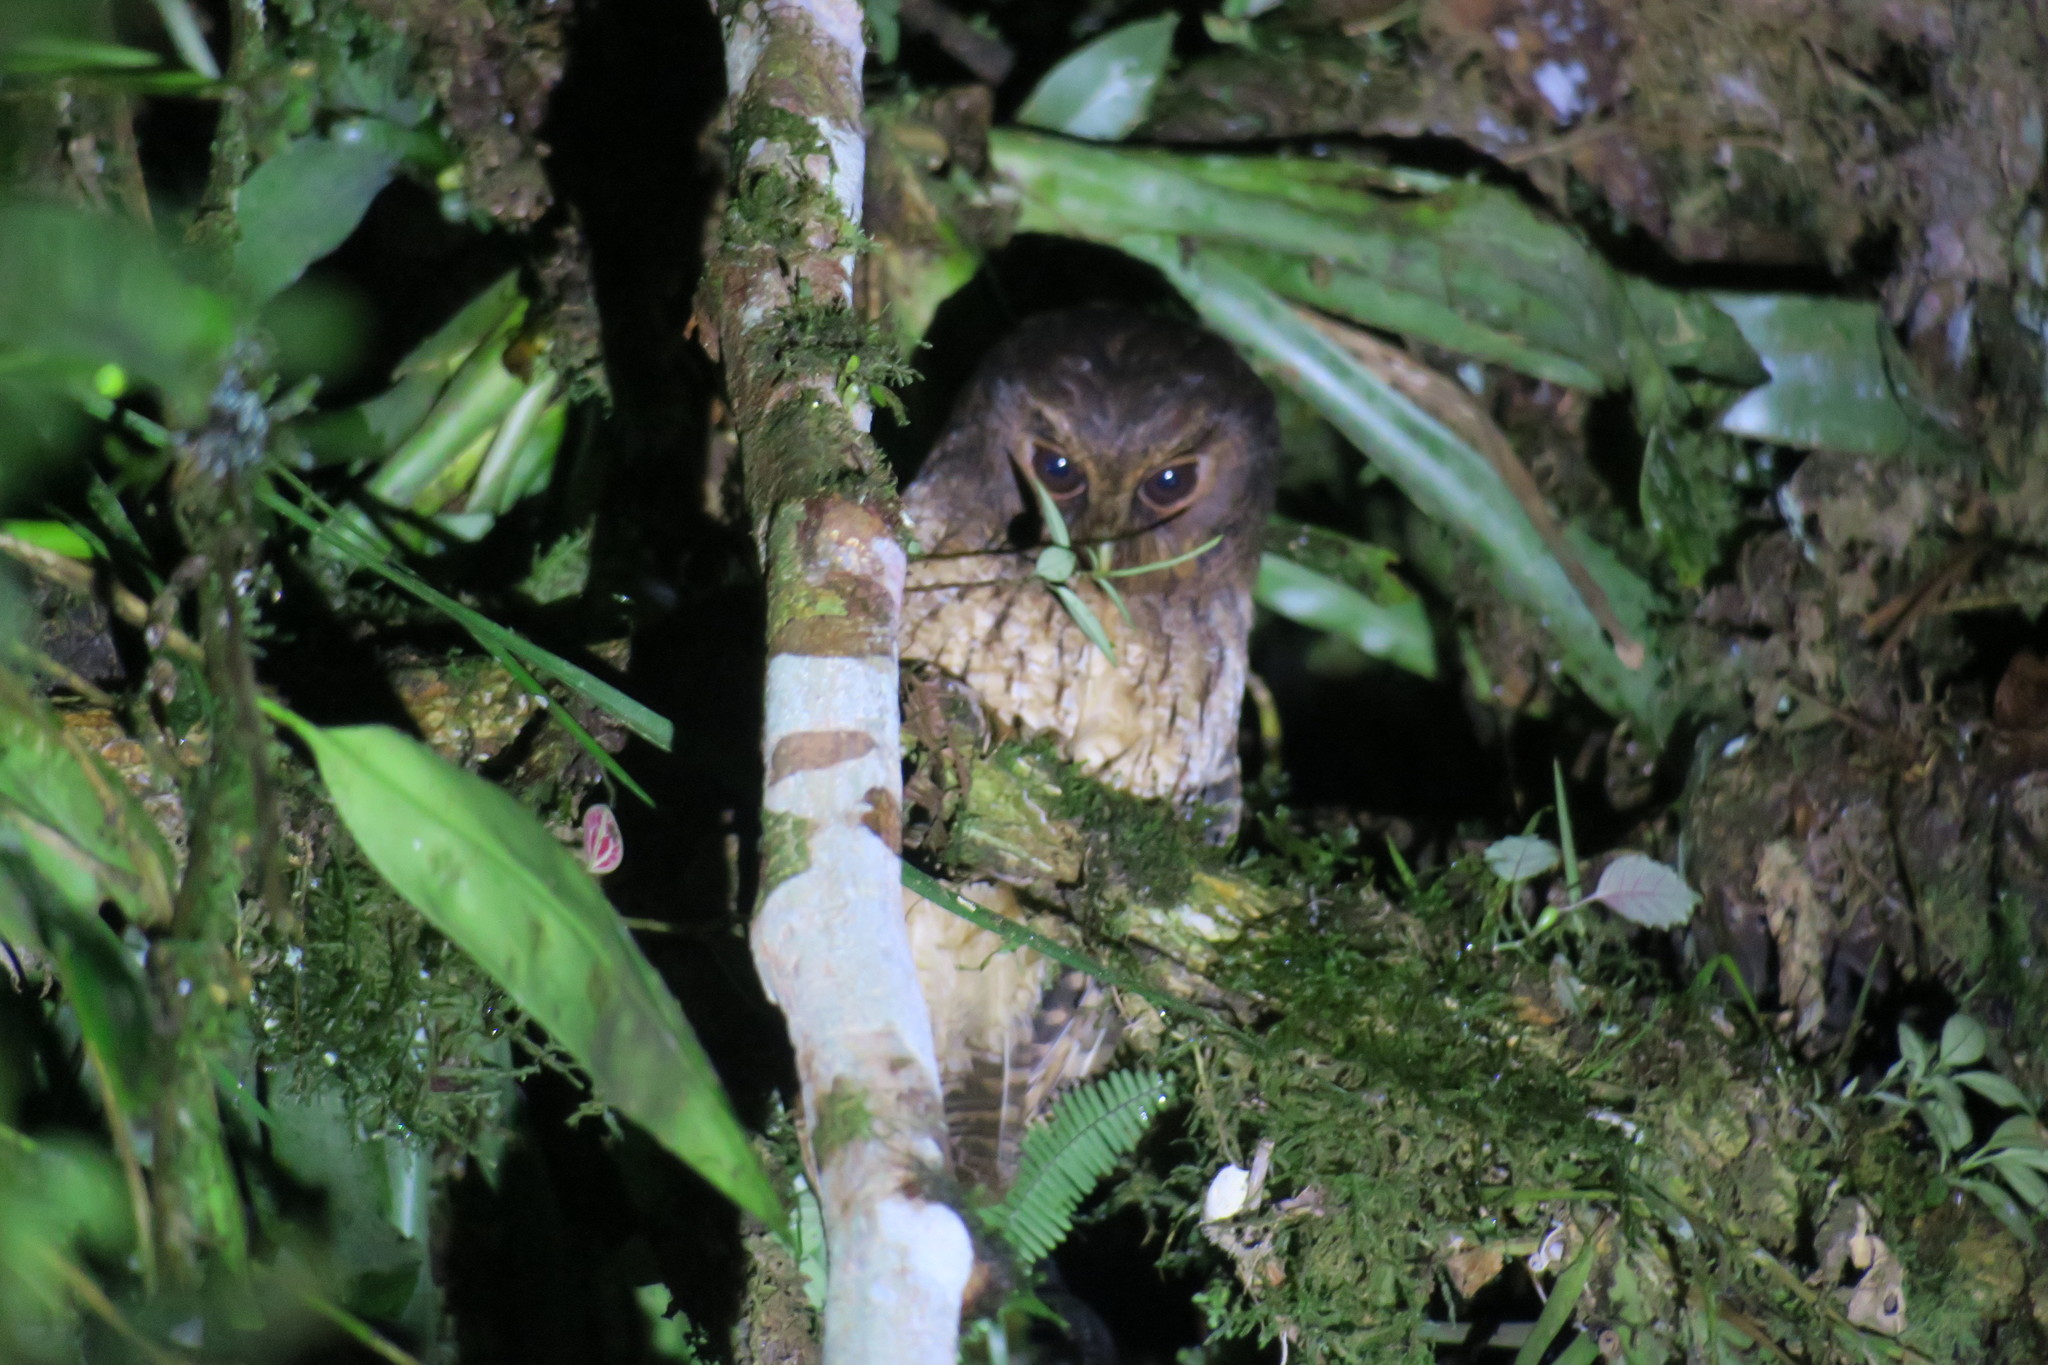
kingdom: Animalia
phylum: Chordata
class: Aves
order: Strigiformes
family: Strigidae
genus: Megascops
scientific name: Megascops ingens
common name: Rufescent screech-owl
